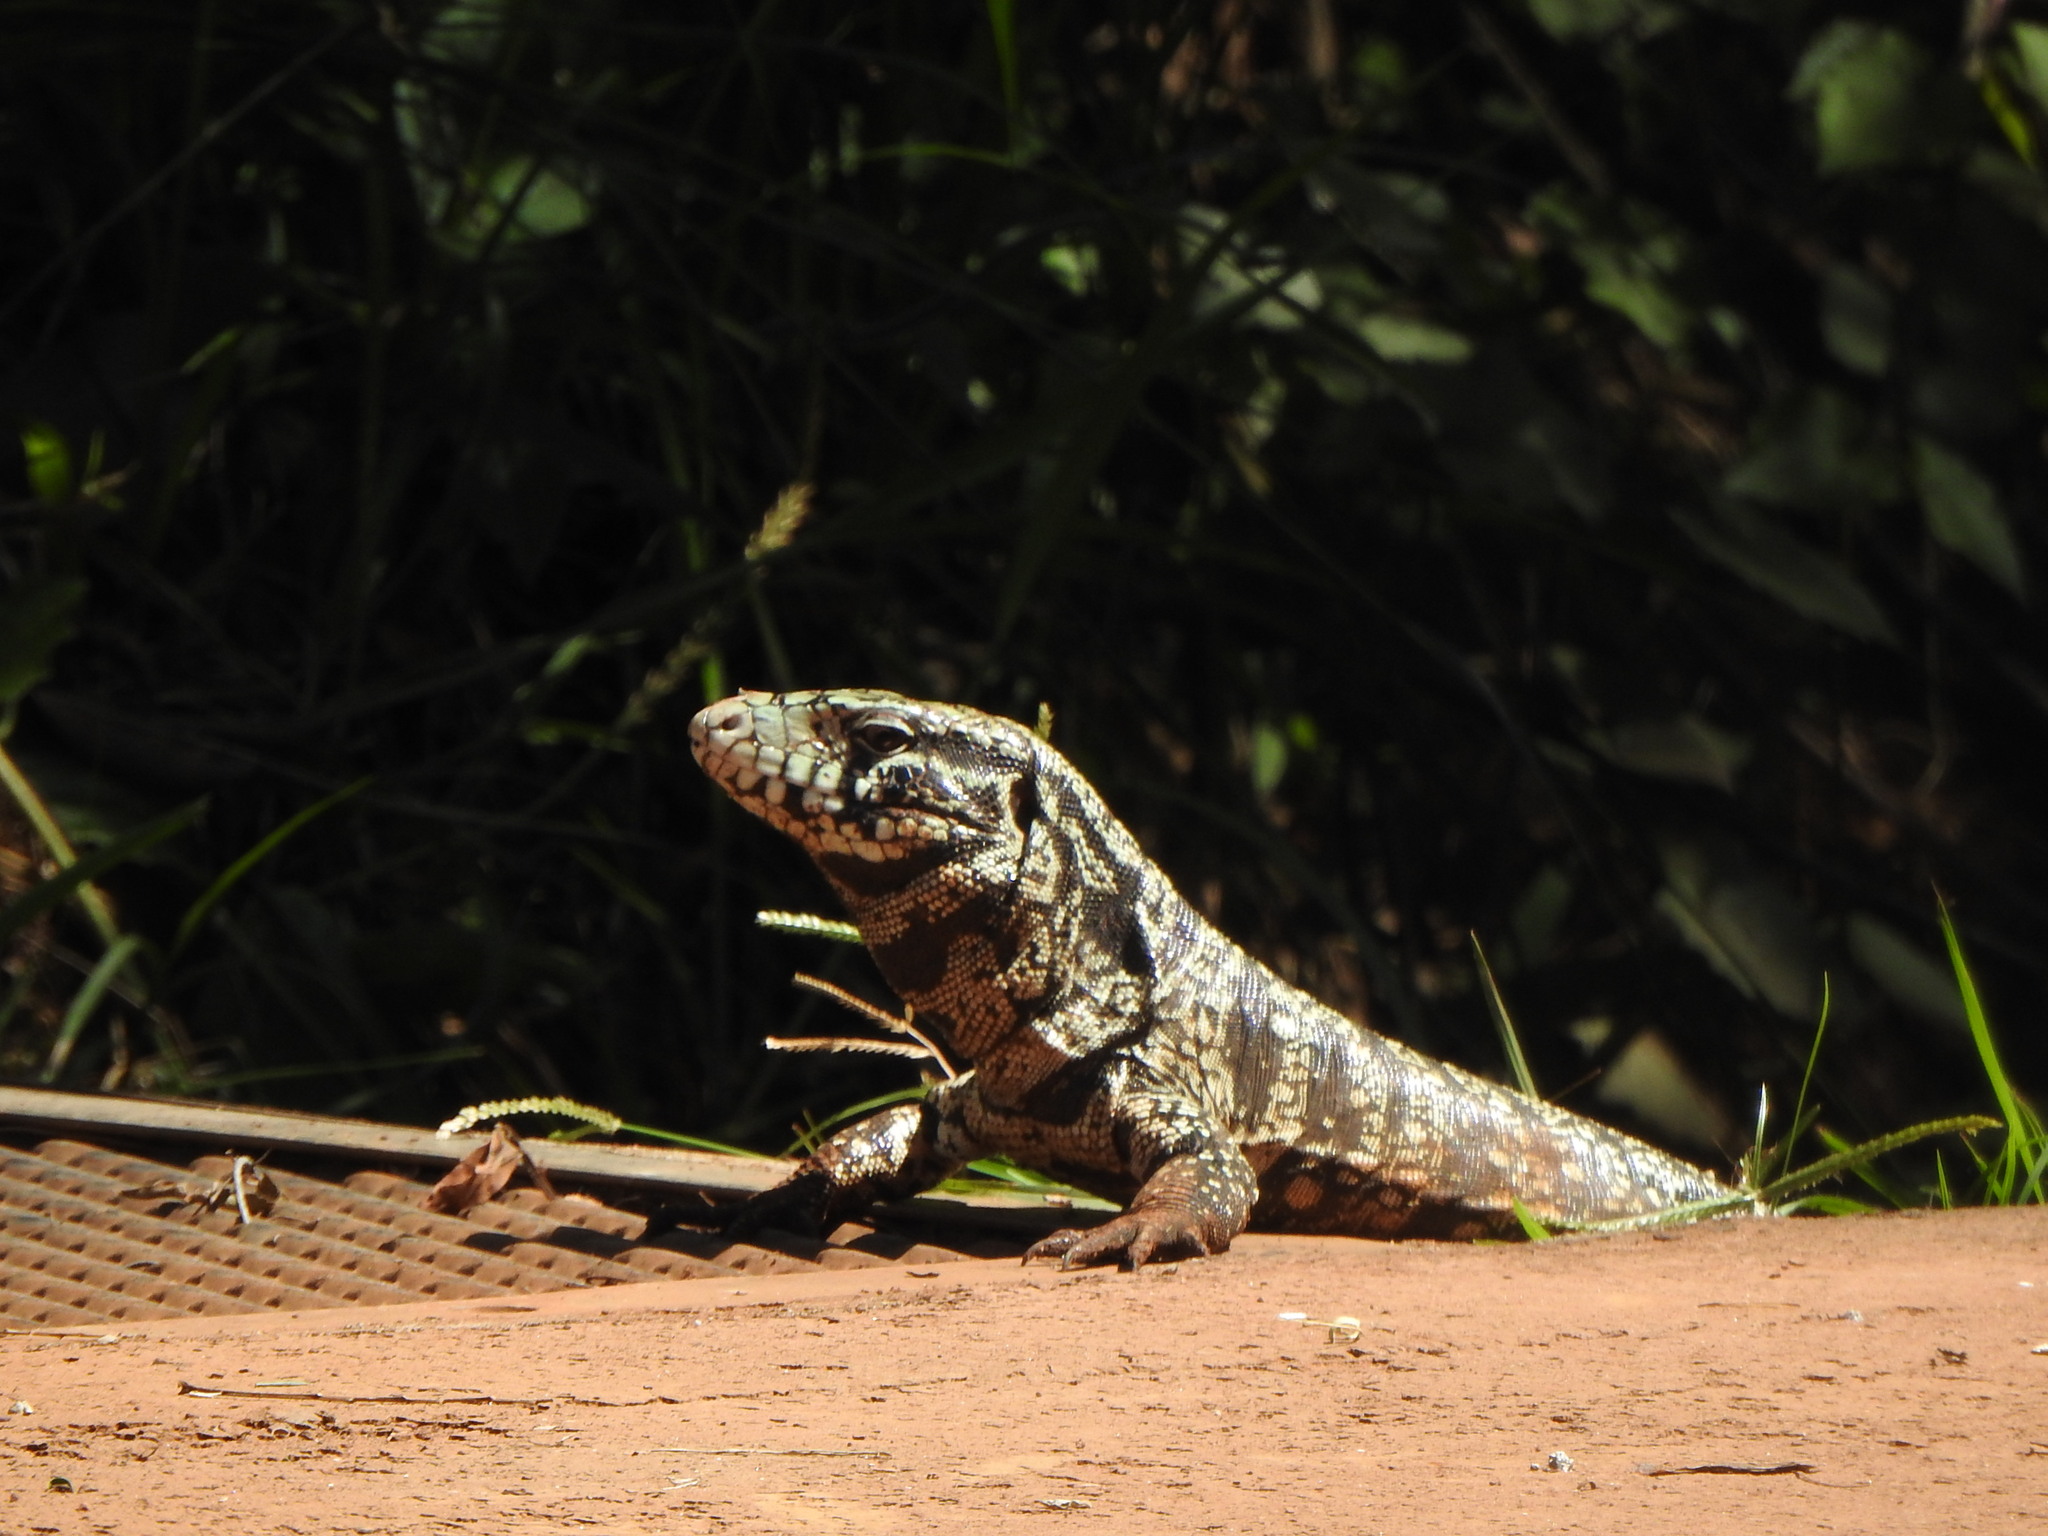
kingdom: Animalia
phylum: Chordata
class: Squamata
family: Teiidae
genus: Salvator
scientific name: Salvator merianae
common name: Argentine black and white tegu
